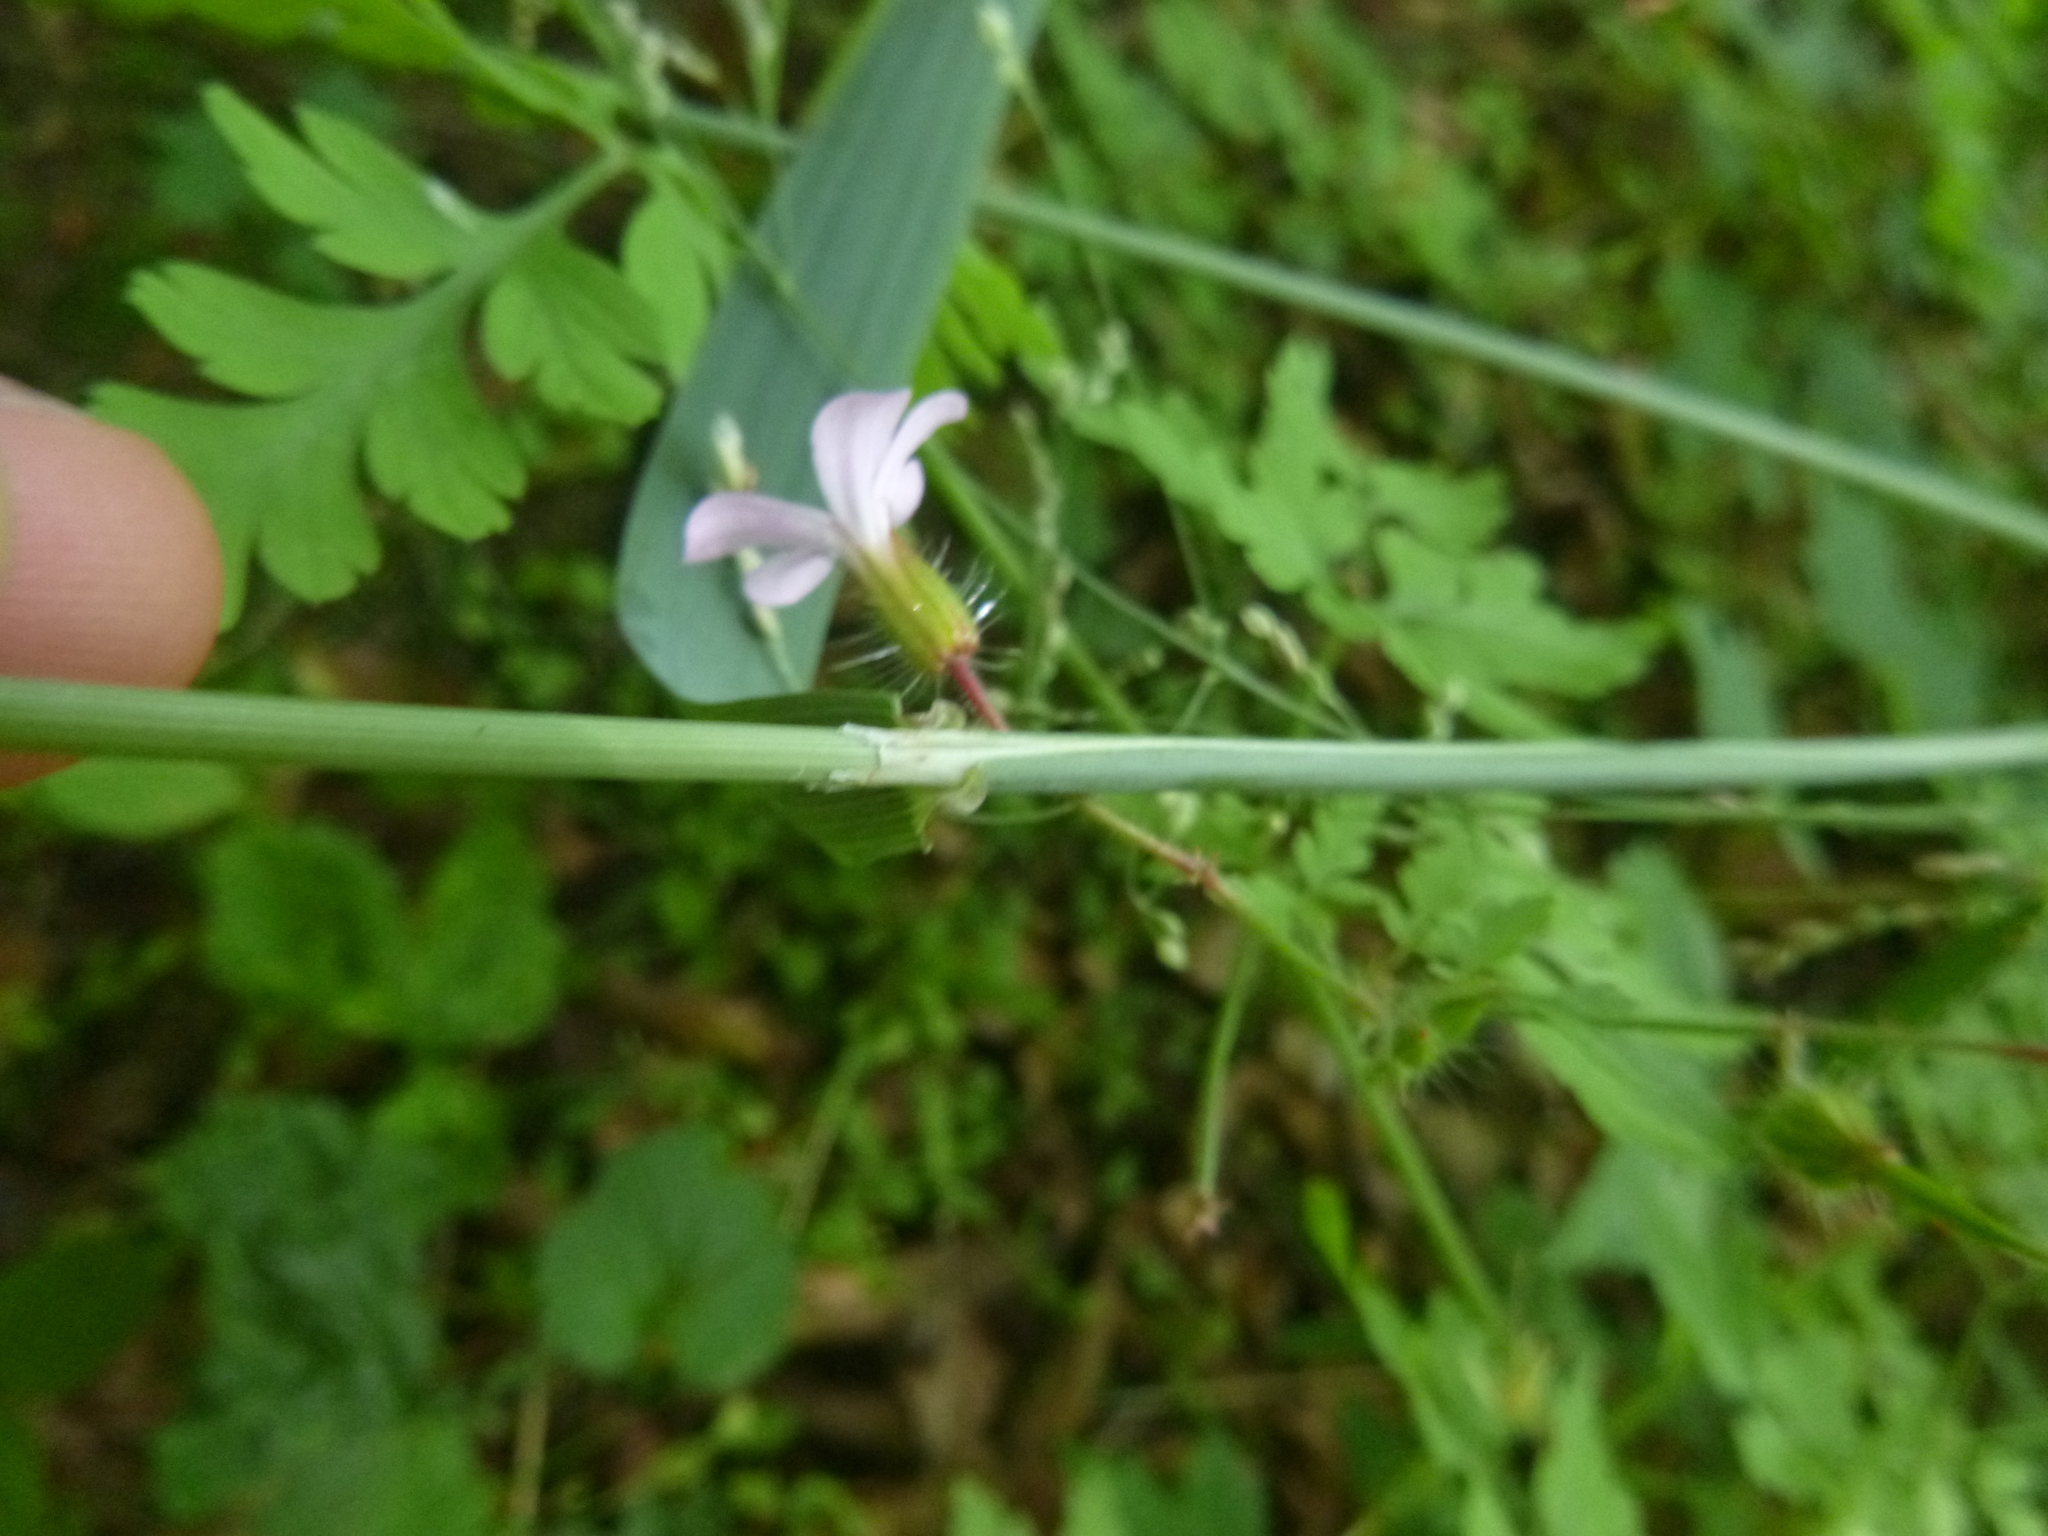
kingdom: Plantae
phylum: Tracheophyta
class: Magnoliopsida
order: Geraniales
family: Geraniaceae
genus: Geranium
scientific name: Geranium robertianum
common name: Herb-robert
